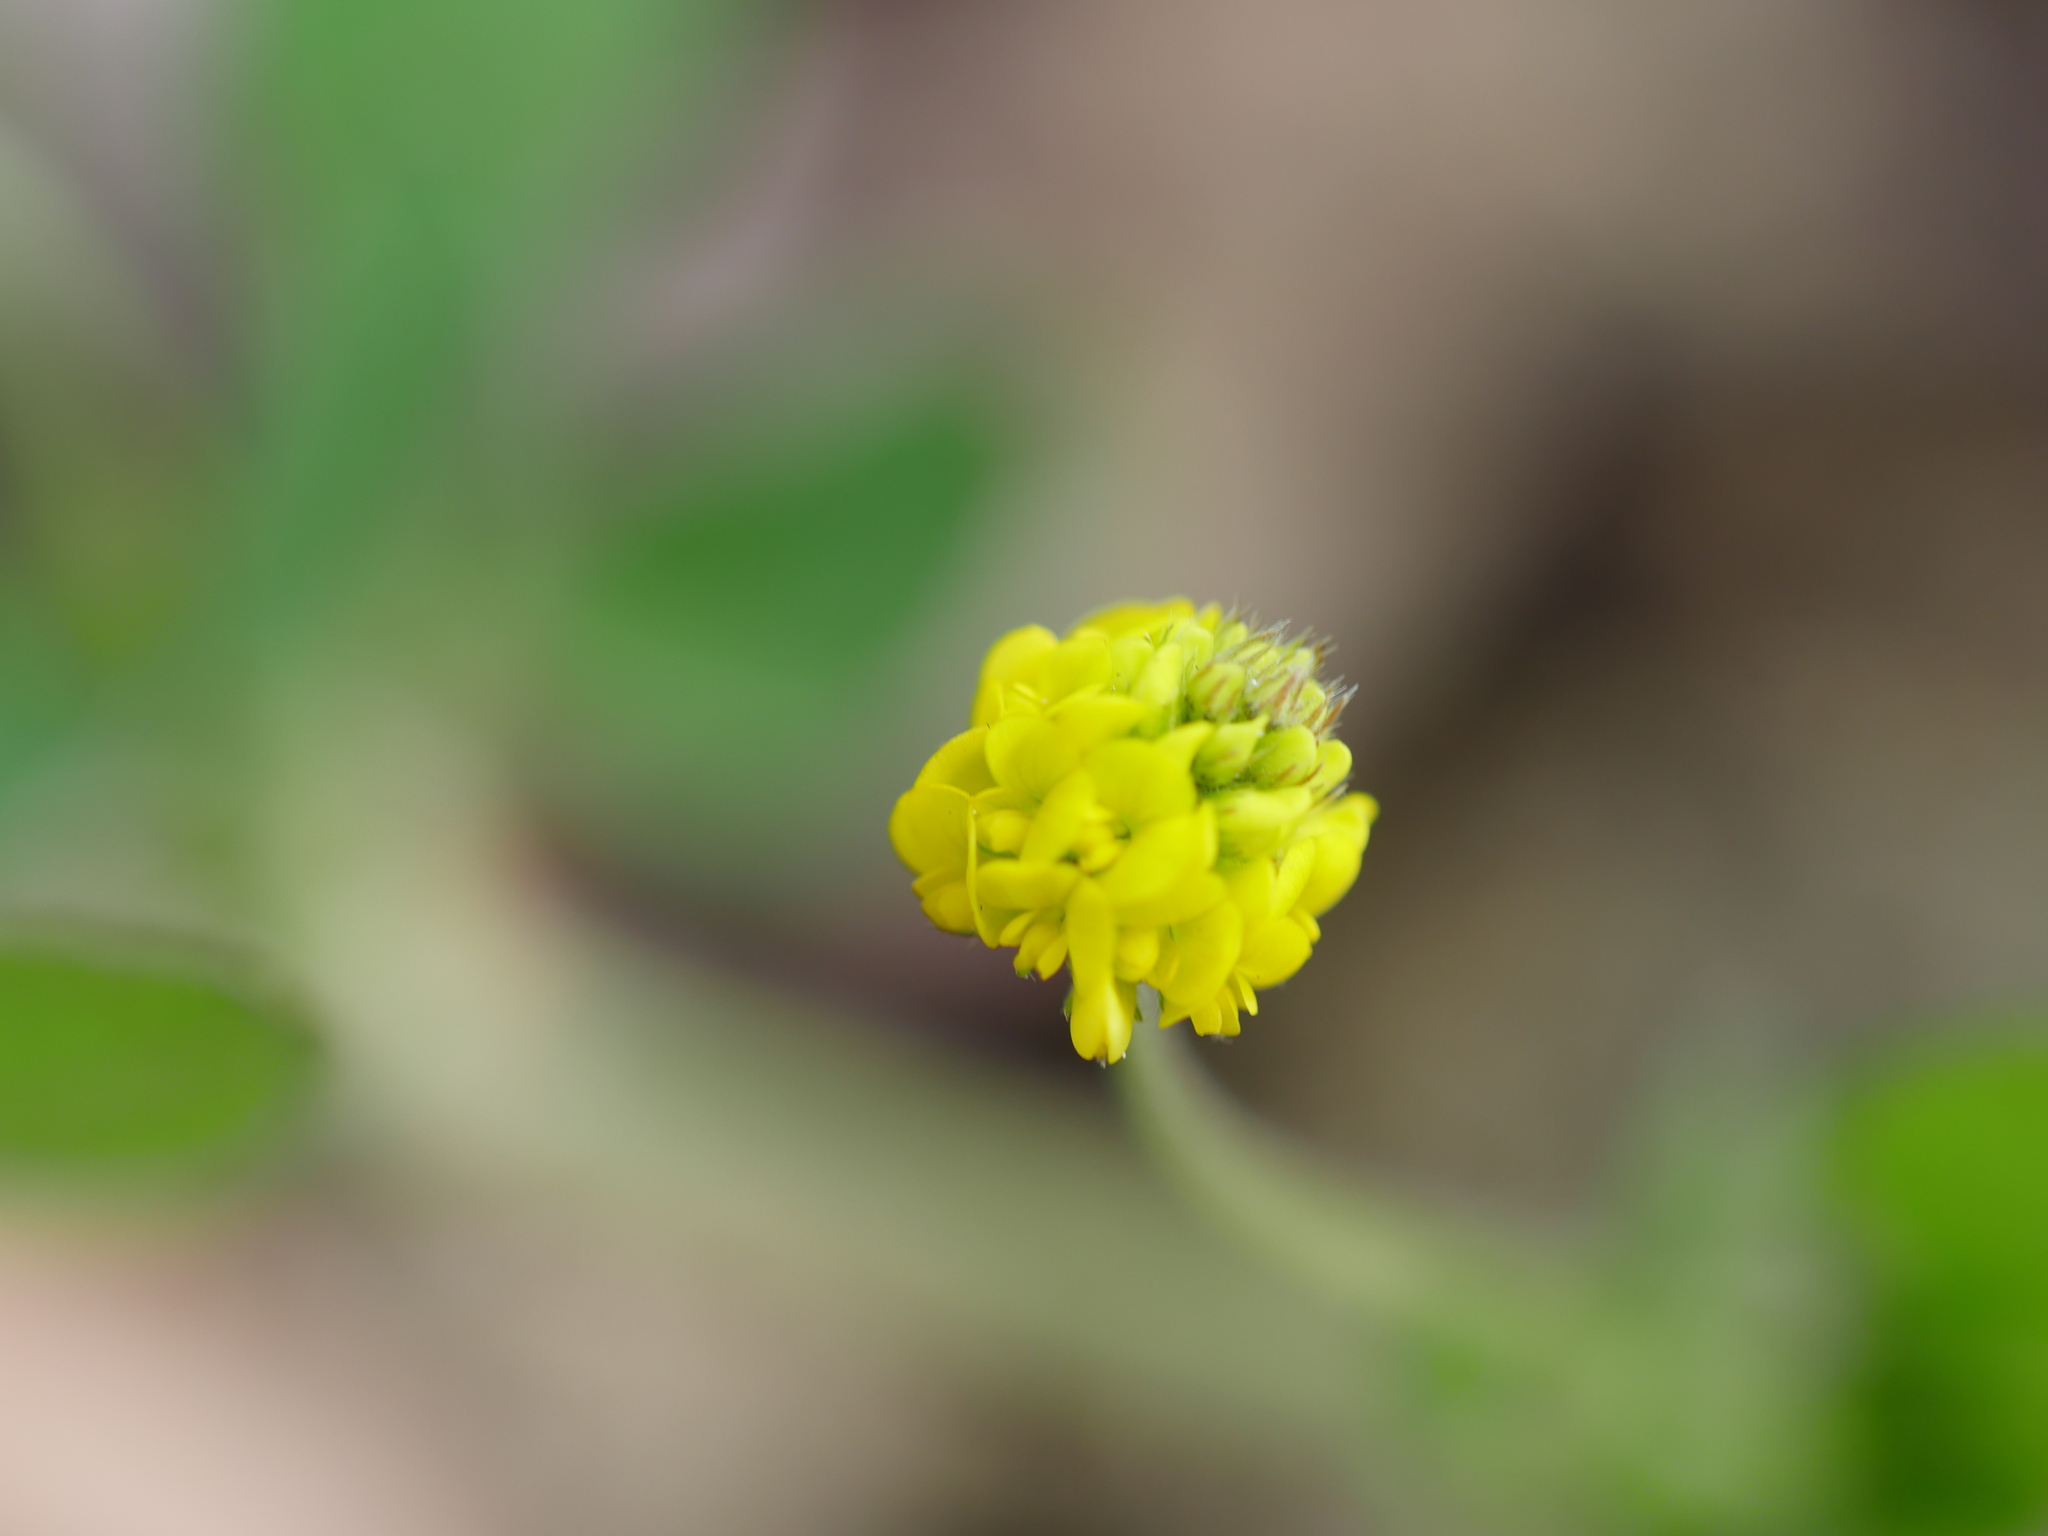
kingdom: Plantae
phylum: Tracheophyta
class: Magnoliopsida
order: Fabales
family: Fabaceae
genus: Medicago
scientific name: Medicago lupulina
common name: Black medick
